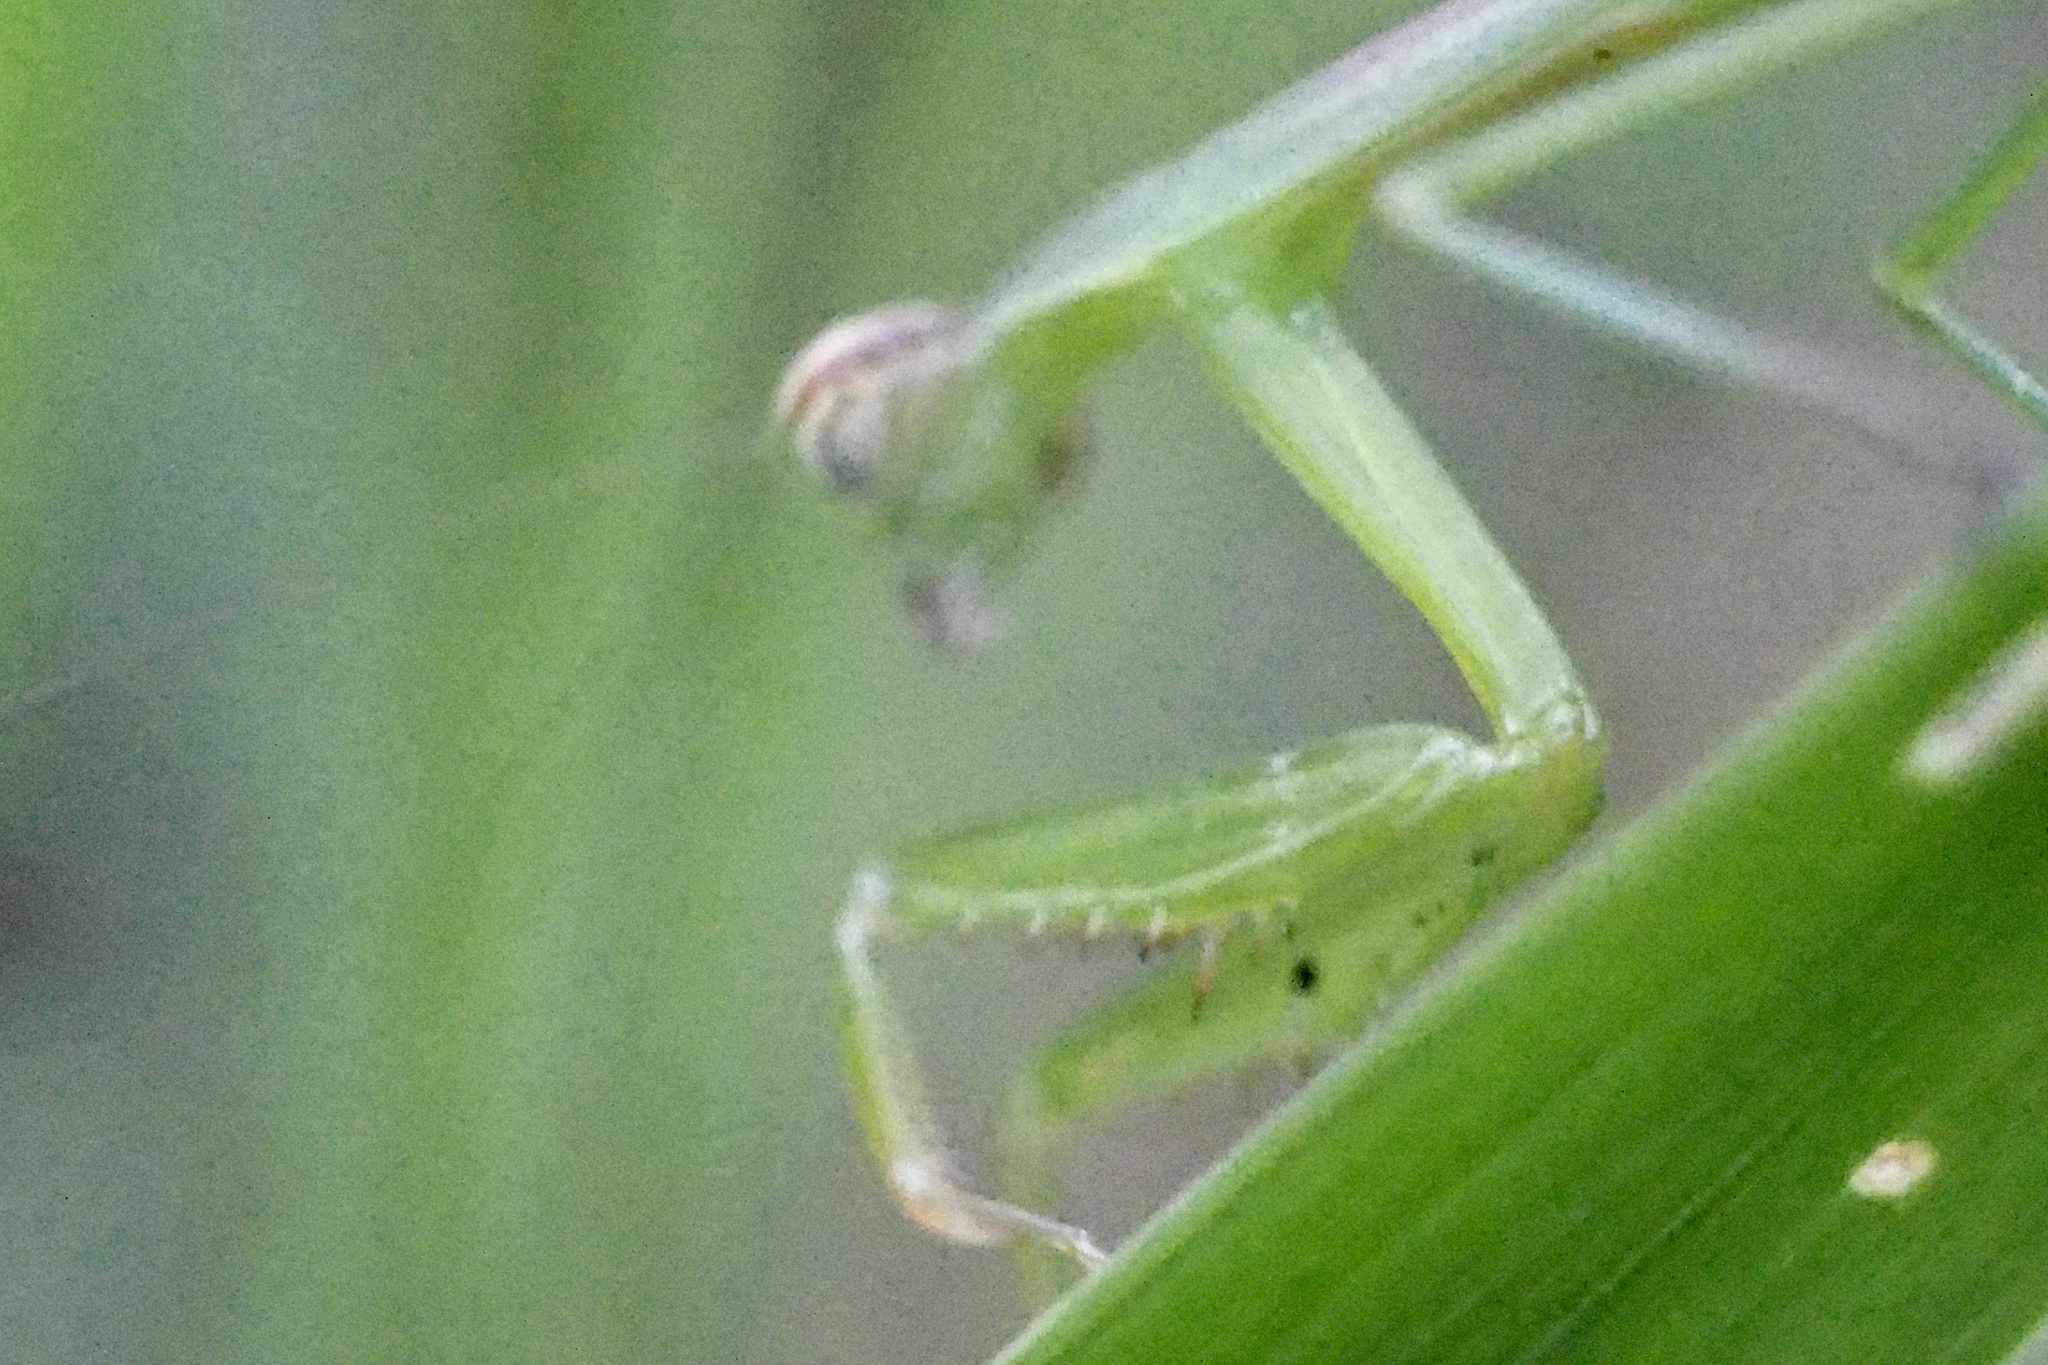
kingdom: Animalia
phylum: Arthropoda
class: Insecta
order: Mantodea
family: Mantidae
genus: Tenodera
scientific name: Tenodera sinensis
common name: Chinese mantis
